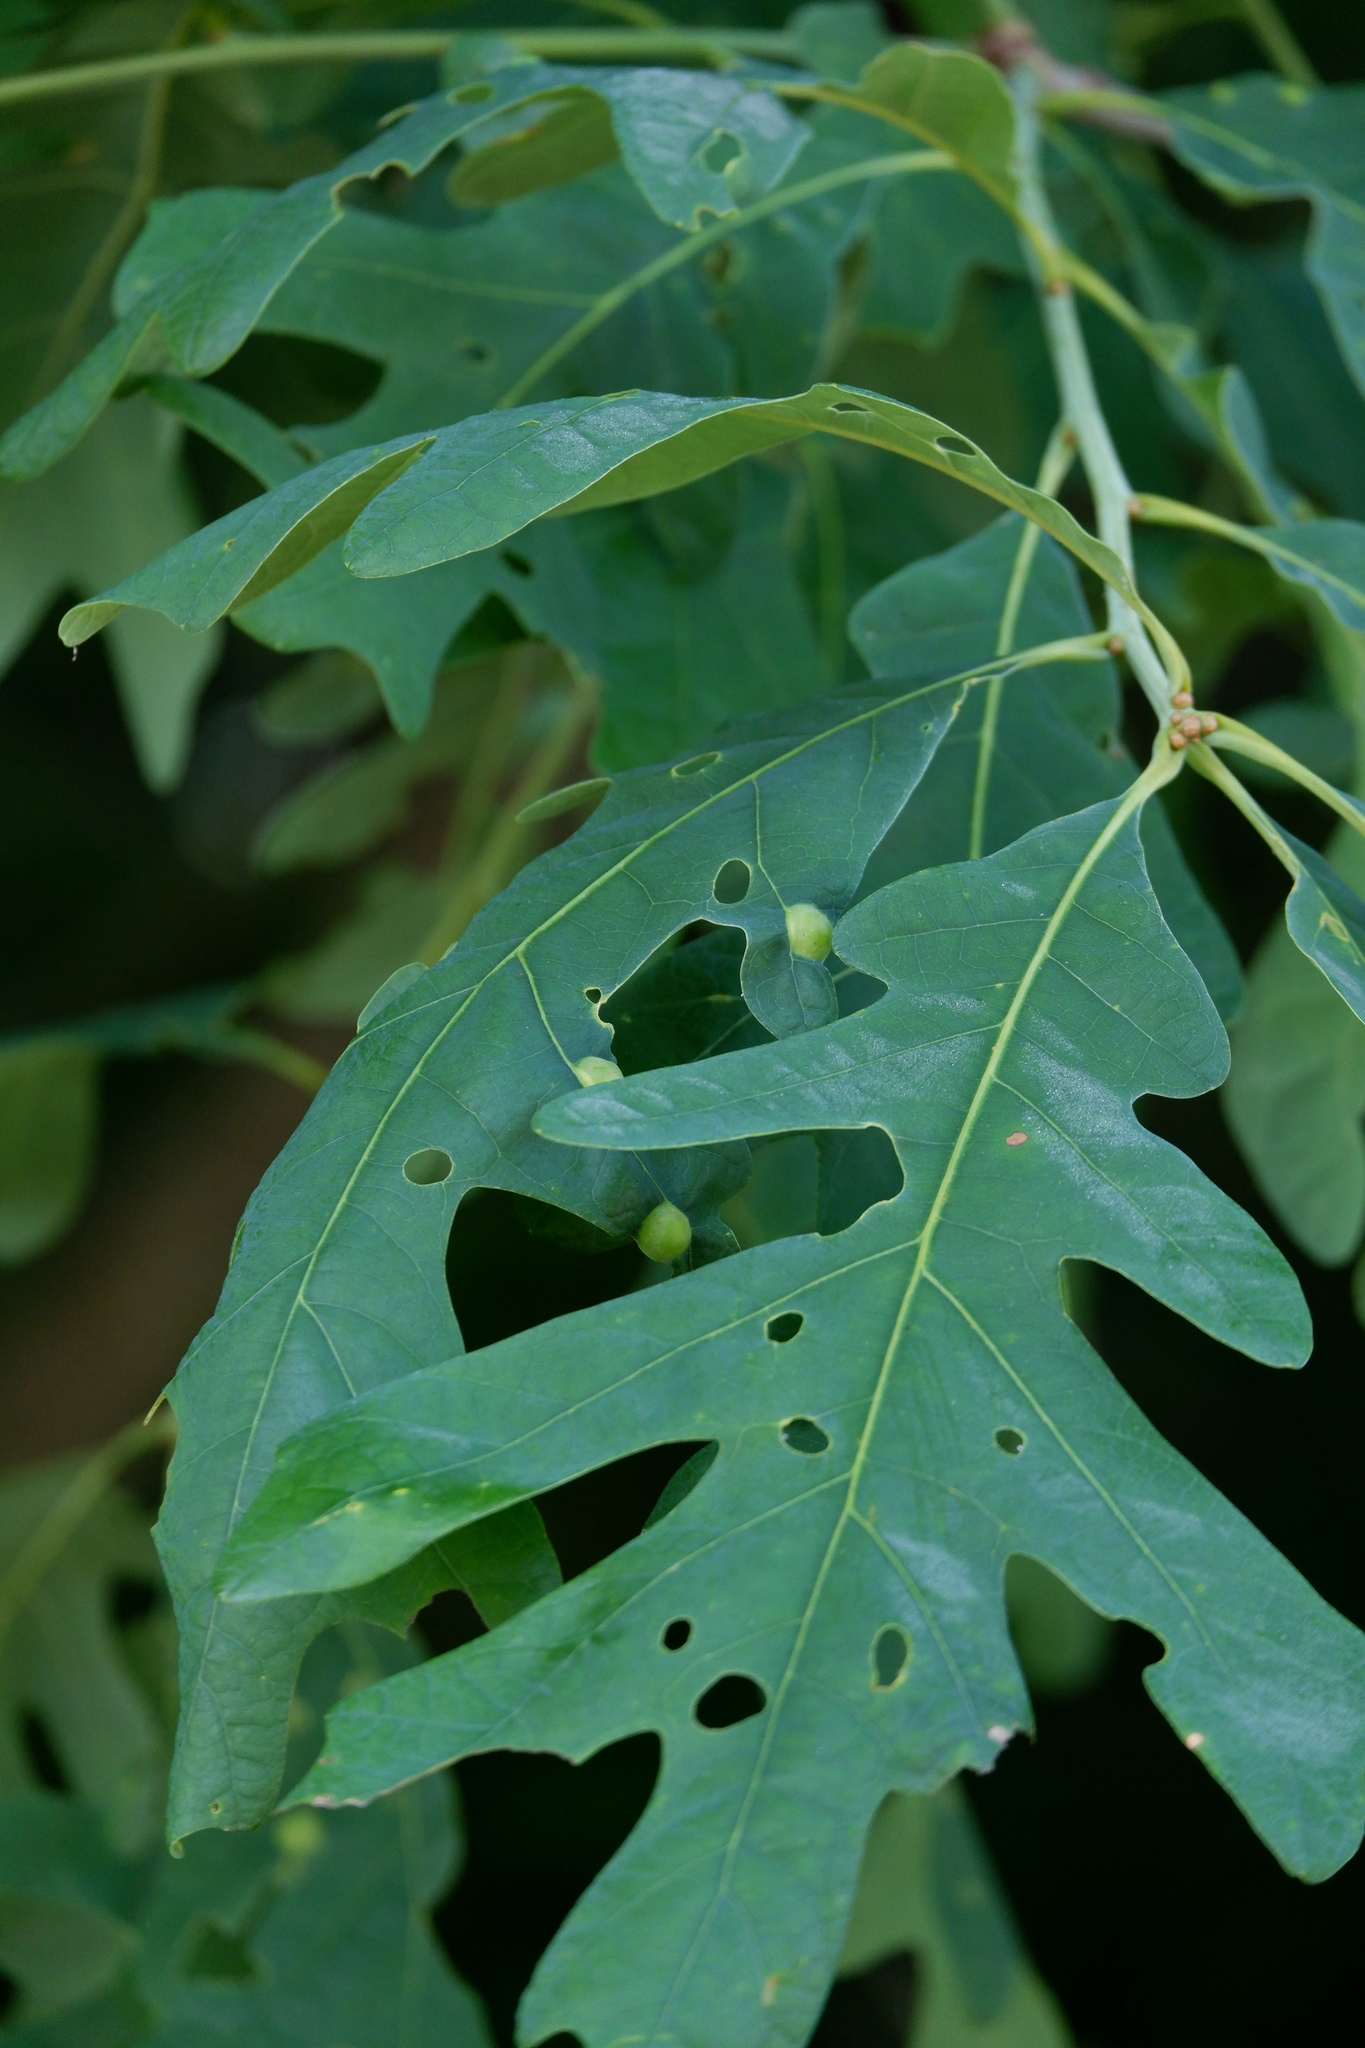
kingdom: Animalia
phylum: Arthropoda
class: Insecta
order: Hymenoptera
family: Cynipidae
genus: Callirhytis
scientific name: Callirhytis
